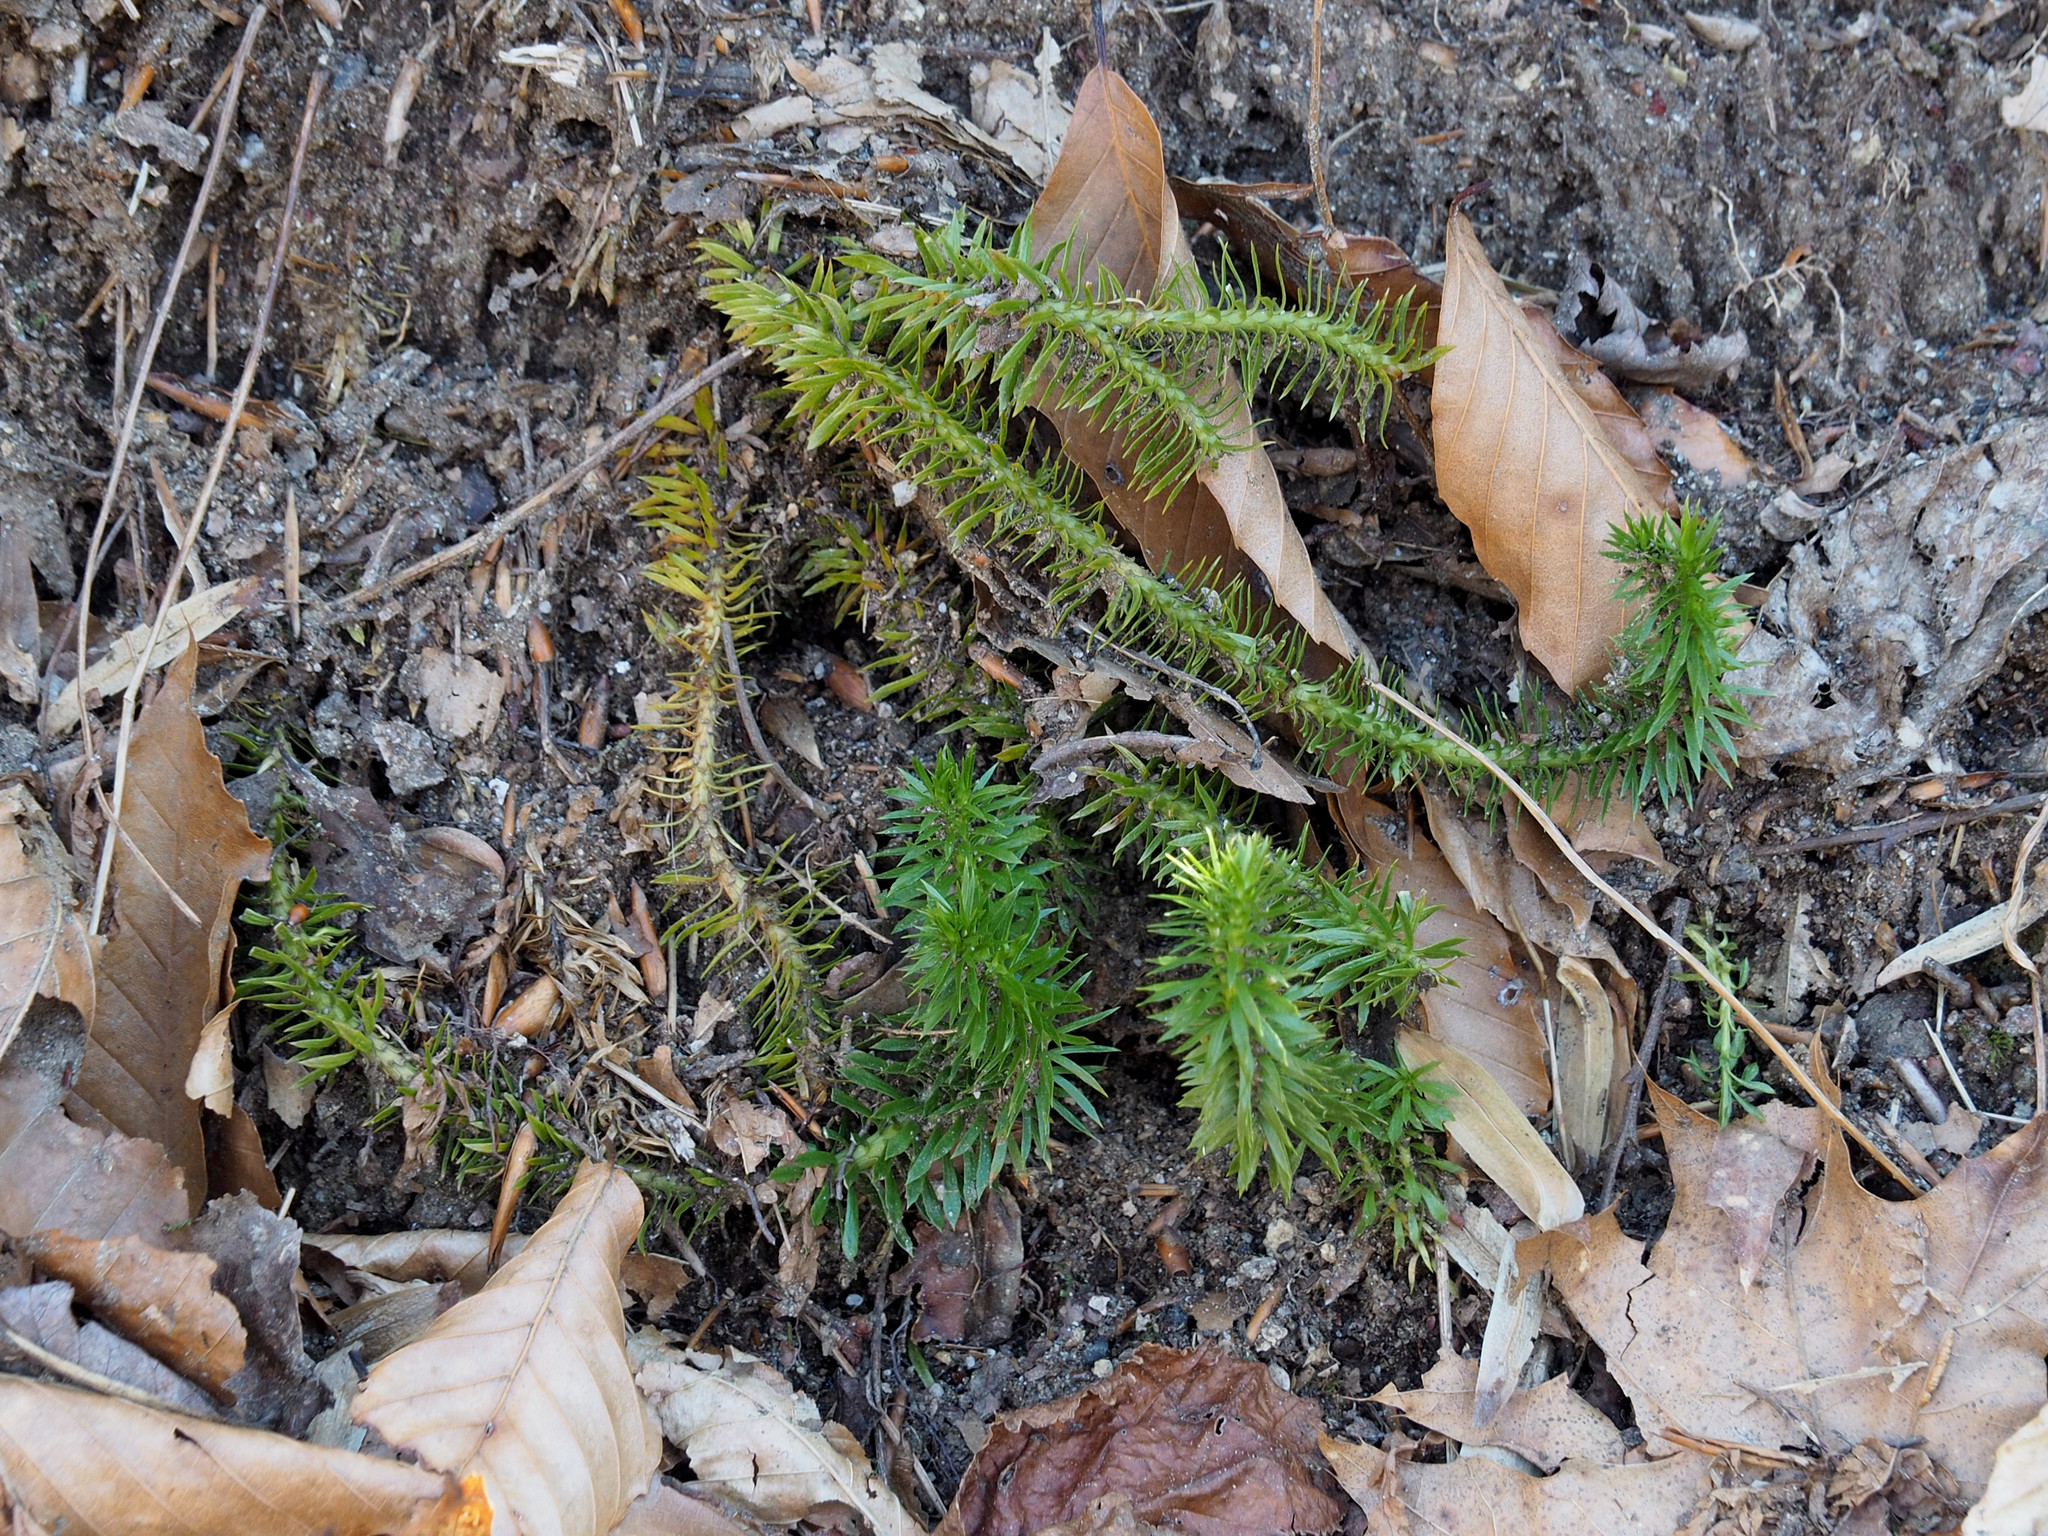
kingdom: Plantae
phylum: Tracheophyta
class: Lycopodiopsida
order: Lycopodiales
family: Lycopodiaceae
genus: Huperzia
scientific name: Huperzia lucidula
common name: Shining clubmoss
